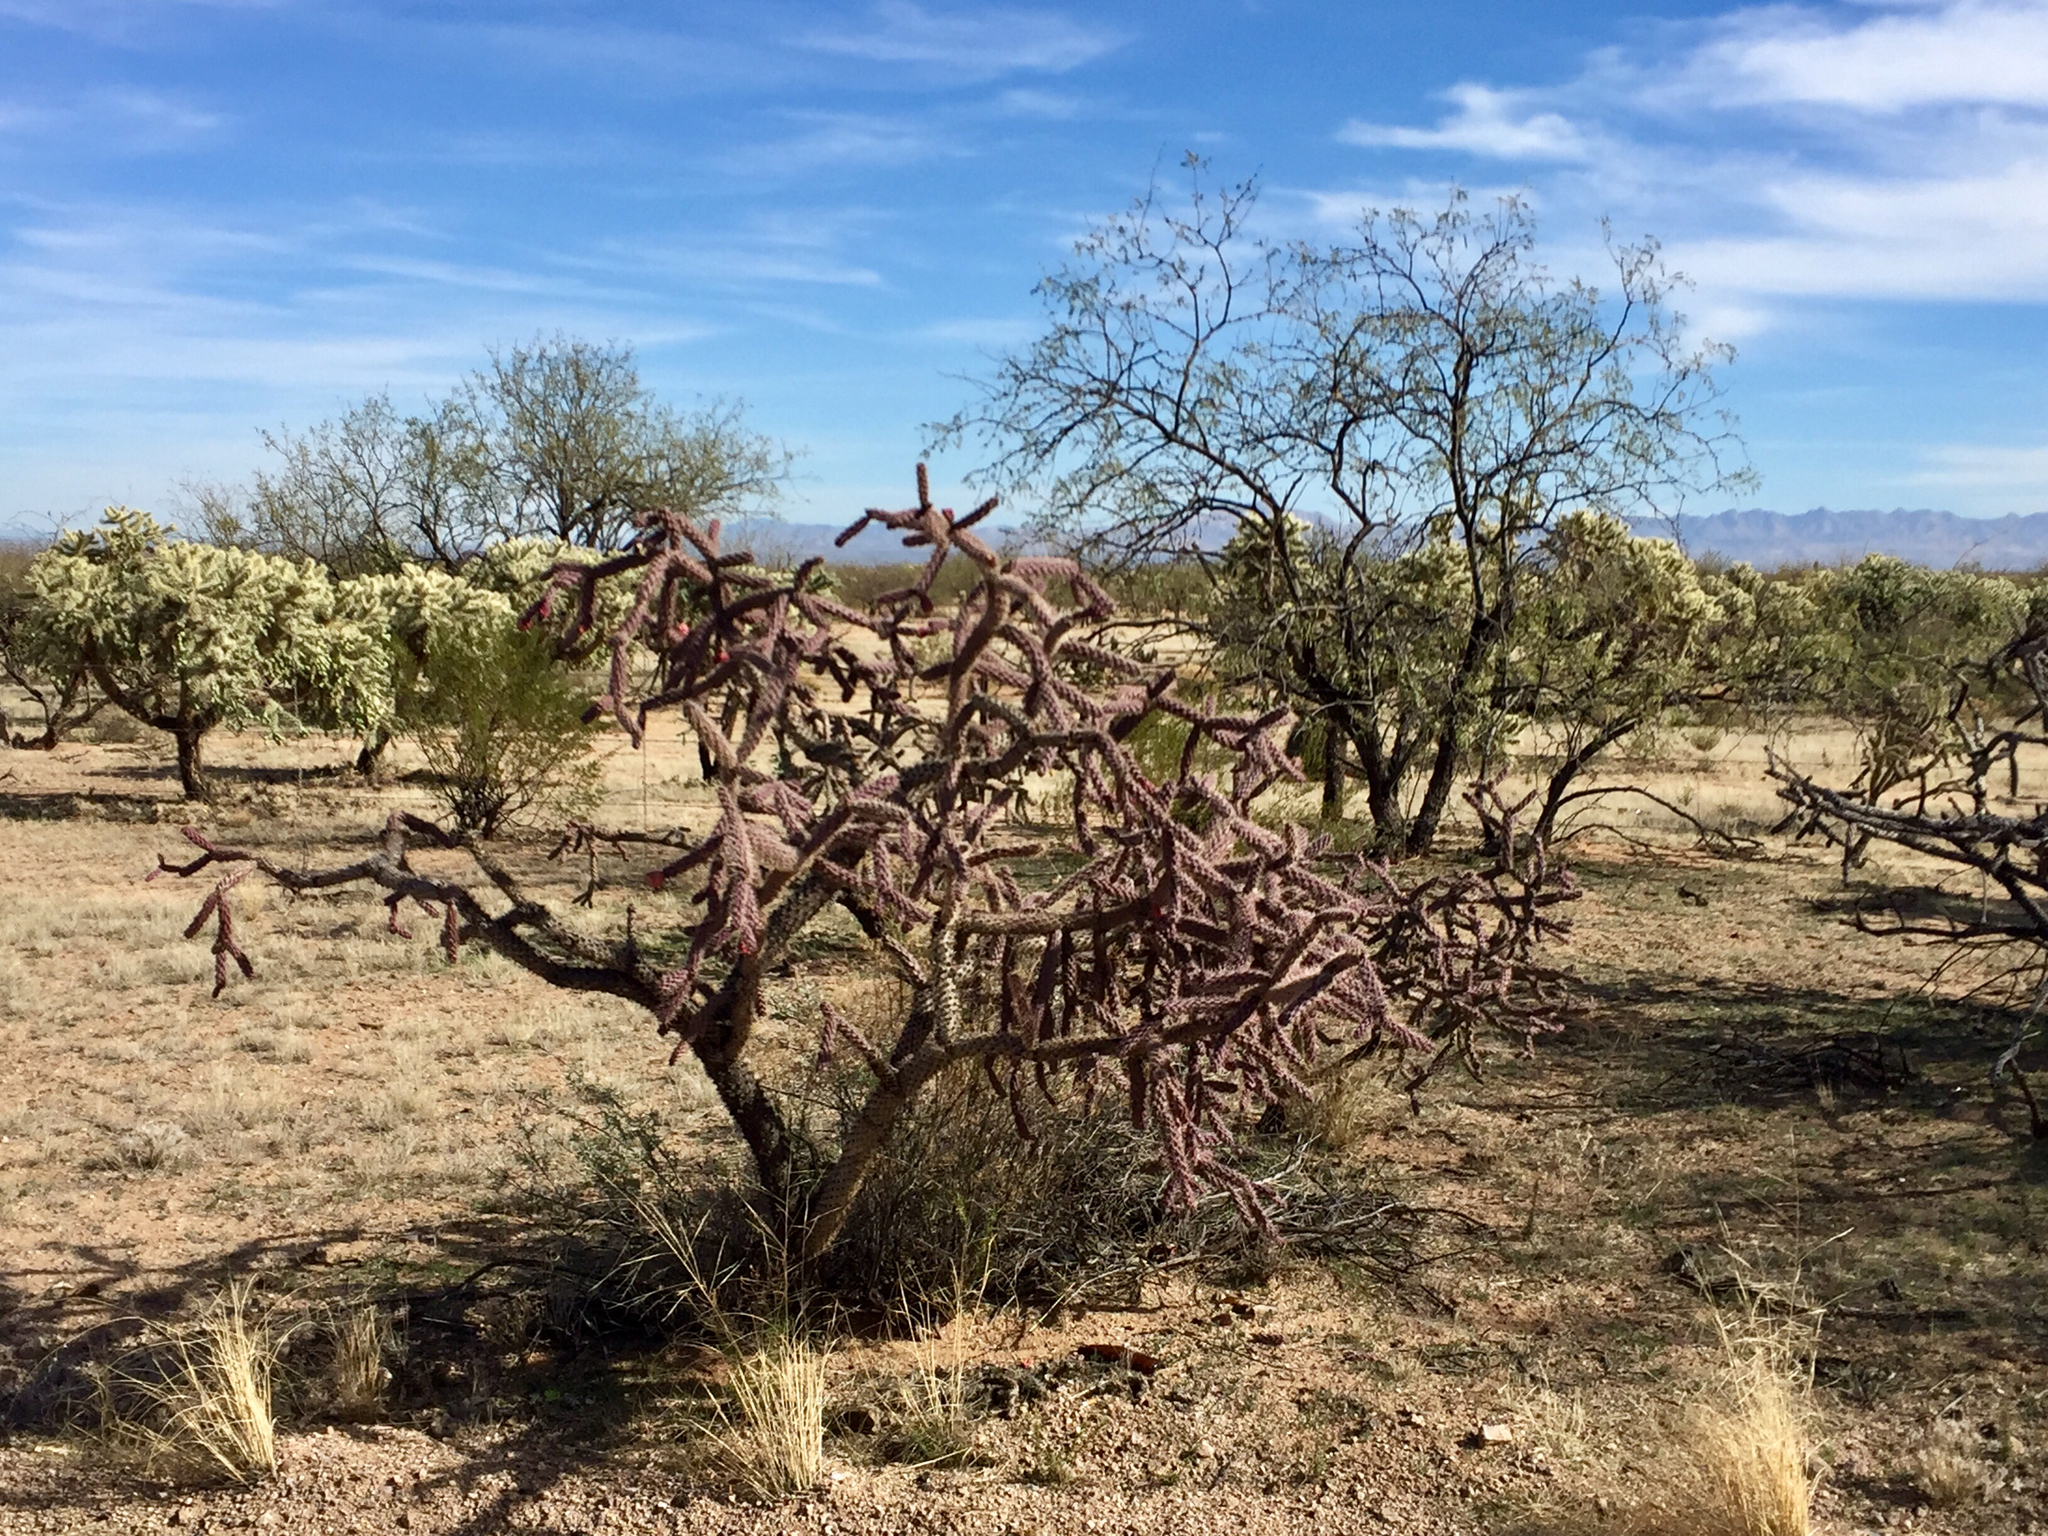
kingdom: Plantae
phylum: Tracheophyta
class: Magnoliopsida
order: Caryophyllales
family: Cactaceae
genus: Cylindropuntia
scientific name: Cylindropuntia thurberi
